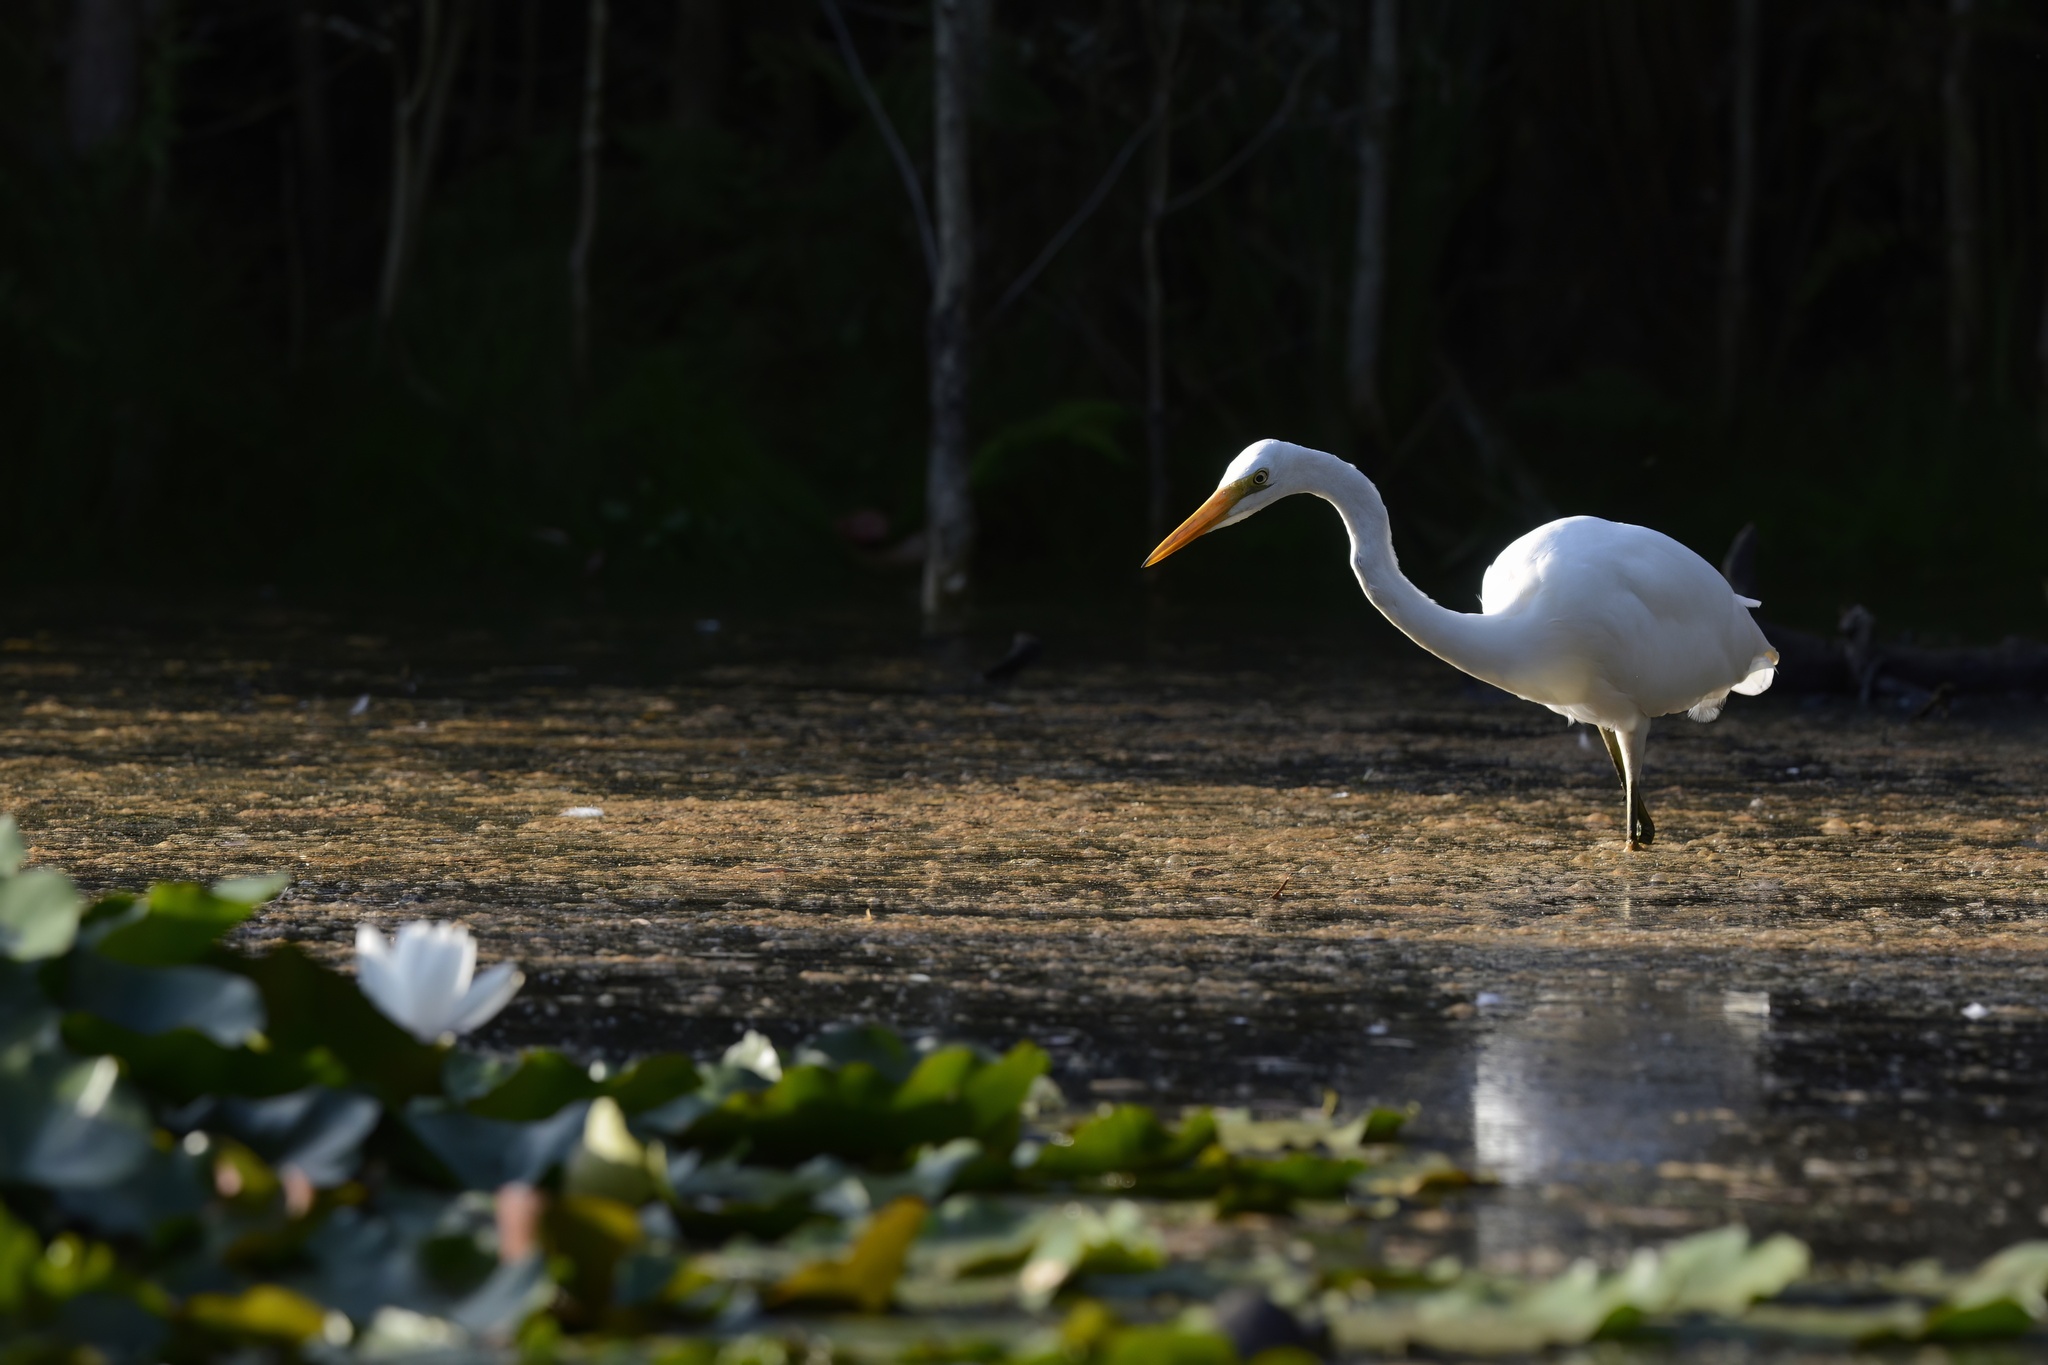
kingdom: Animalia
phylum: Chordata
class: Aves
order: Pelecaniformes
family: Ardeidae
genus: Ardea
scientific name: Ardea alba
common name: Great egret
